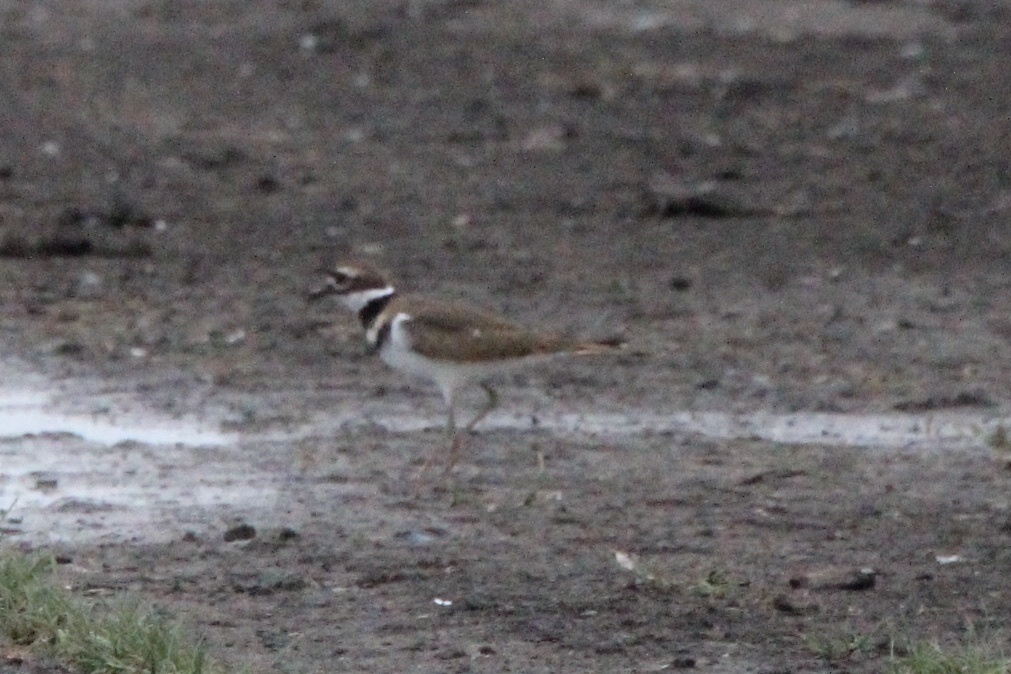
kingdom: Animalia
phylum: Chordata
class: Aves
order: Charadriiformes
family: Charadriidae
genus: Charadrius
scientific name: Charadrius vociferus
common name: Killdeer
